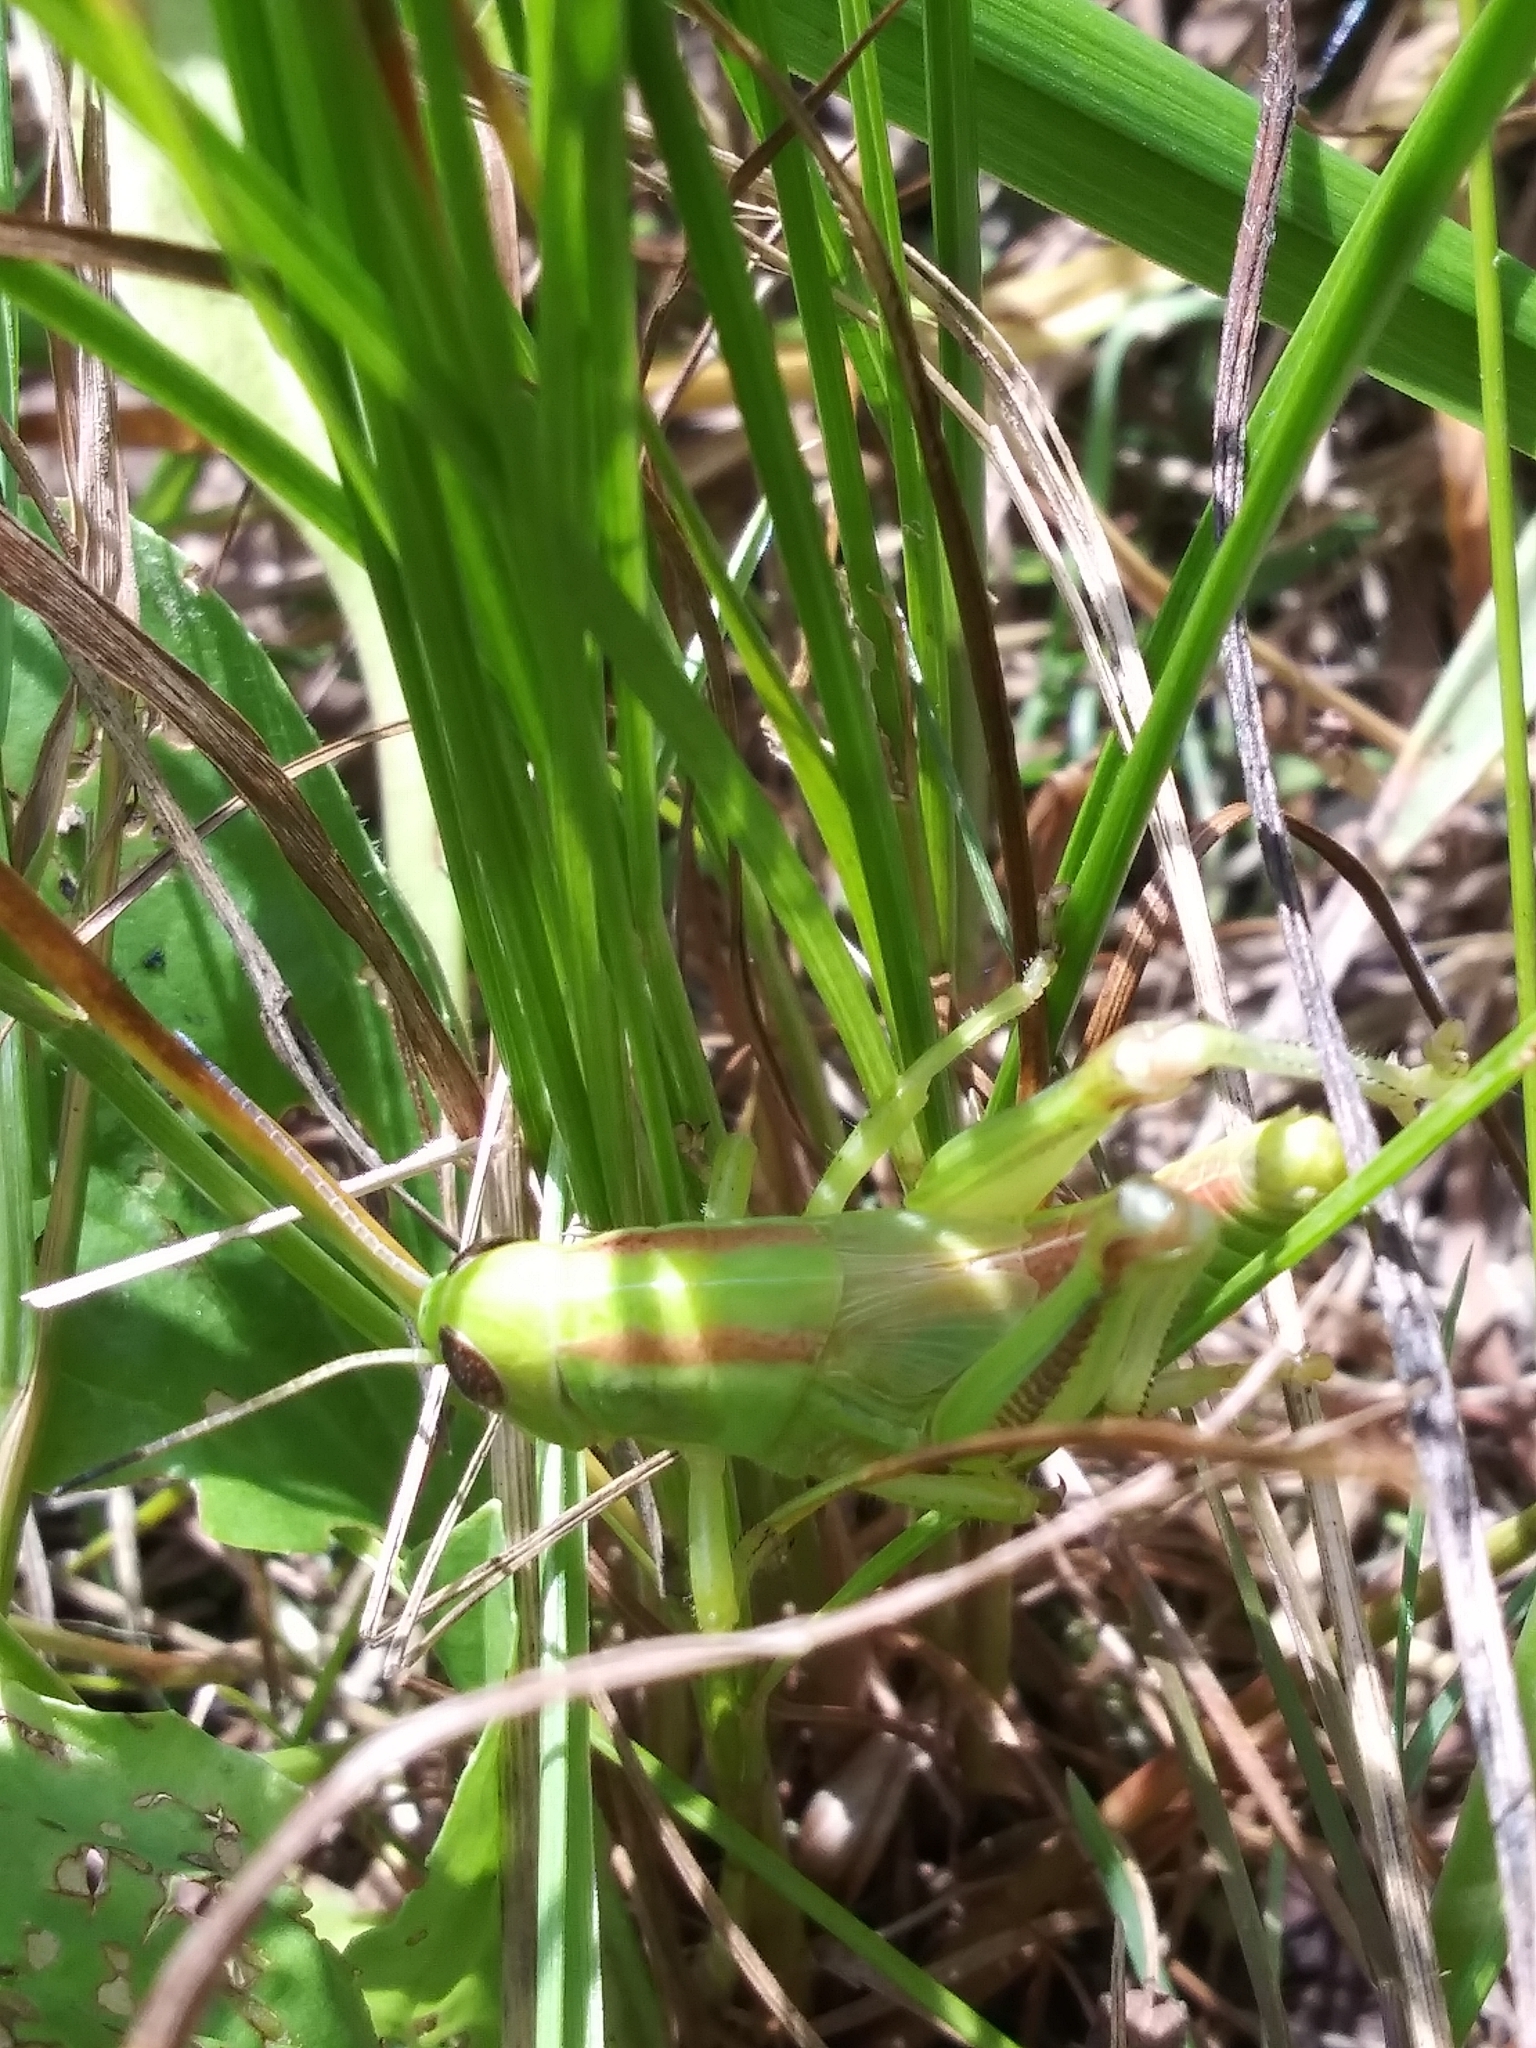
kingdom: Animalia
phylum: Arthropoda
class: Insecta
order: Orthoptera
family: Acrididae
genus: Melanoplus
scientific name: Melanoplus bivittatus
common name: Two-striped grasshopper
